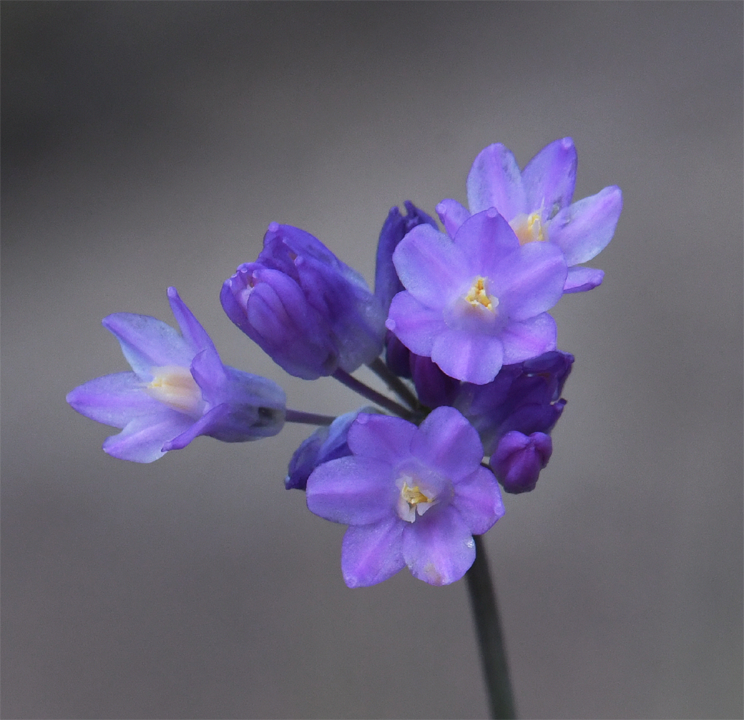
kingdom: Plantae
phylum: Tracheophyta
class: Liliopsida
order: Asparagales
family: Asparagaceae
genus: Dipterostemon
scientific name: Dipterostemon capitatus
